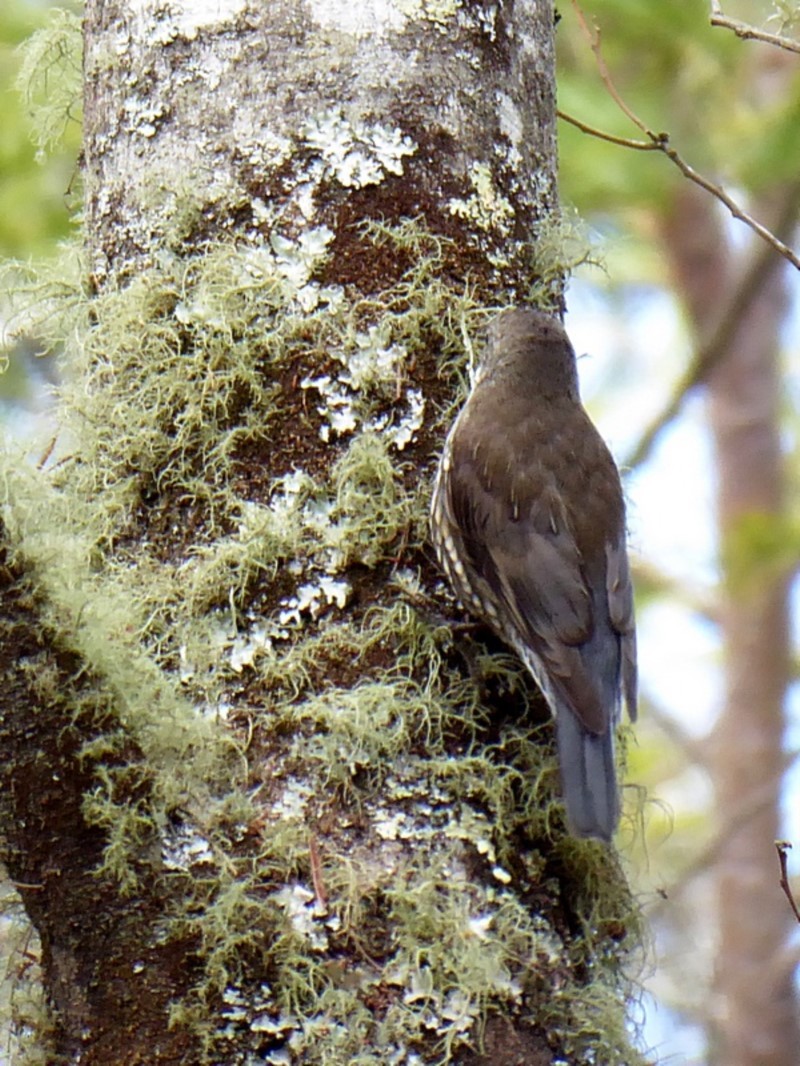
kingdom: Animalia
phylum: Chordata
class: Aves
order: Passeriformes
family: Climacteridae
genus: Cormobates
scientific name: Cormobates leucophaea
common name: White-throated treecreeper
